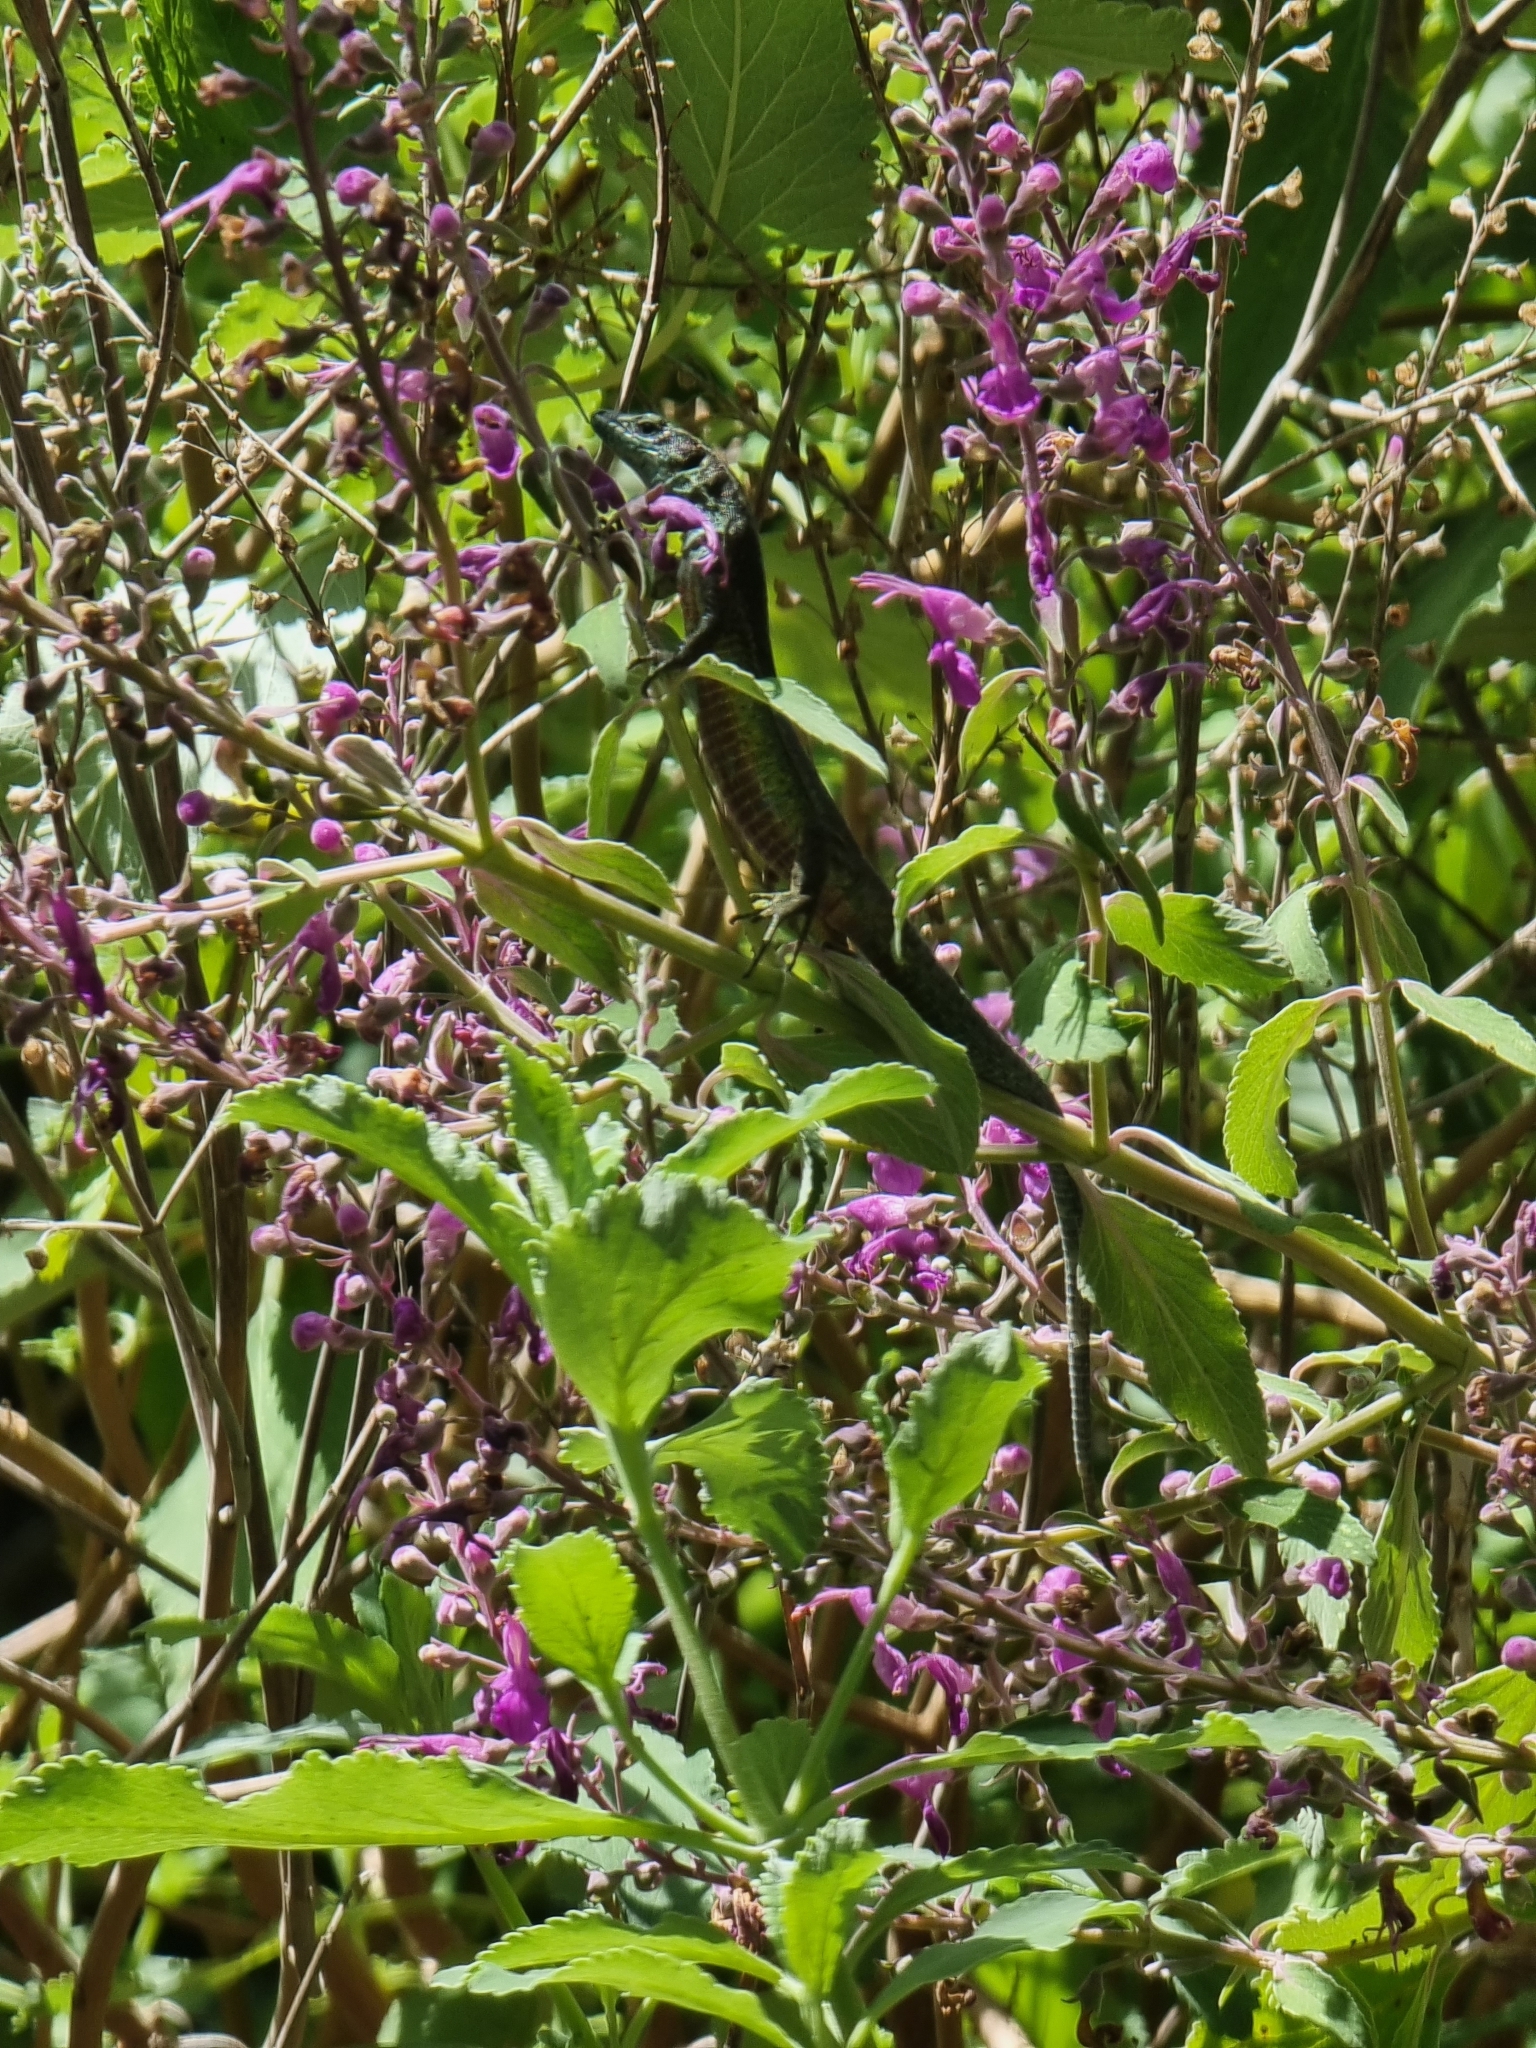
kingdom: Animalia
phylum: Chordata
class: Squamata
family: Lacertidae
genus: Teira
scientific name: Teira dugesii
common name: Madeira lizard
